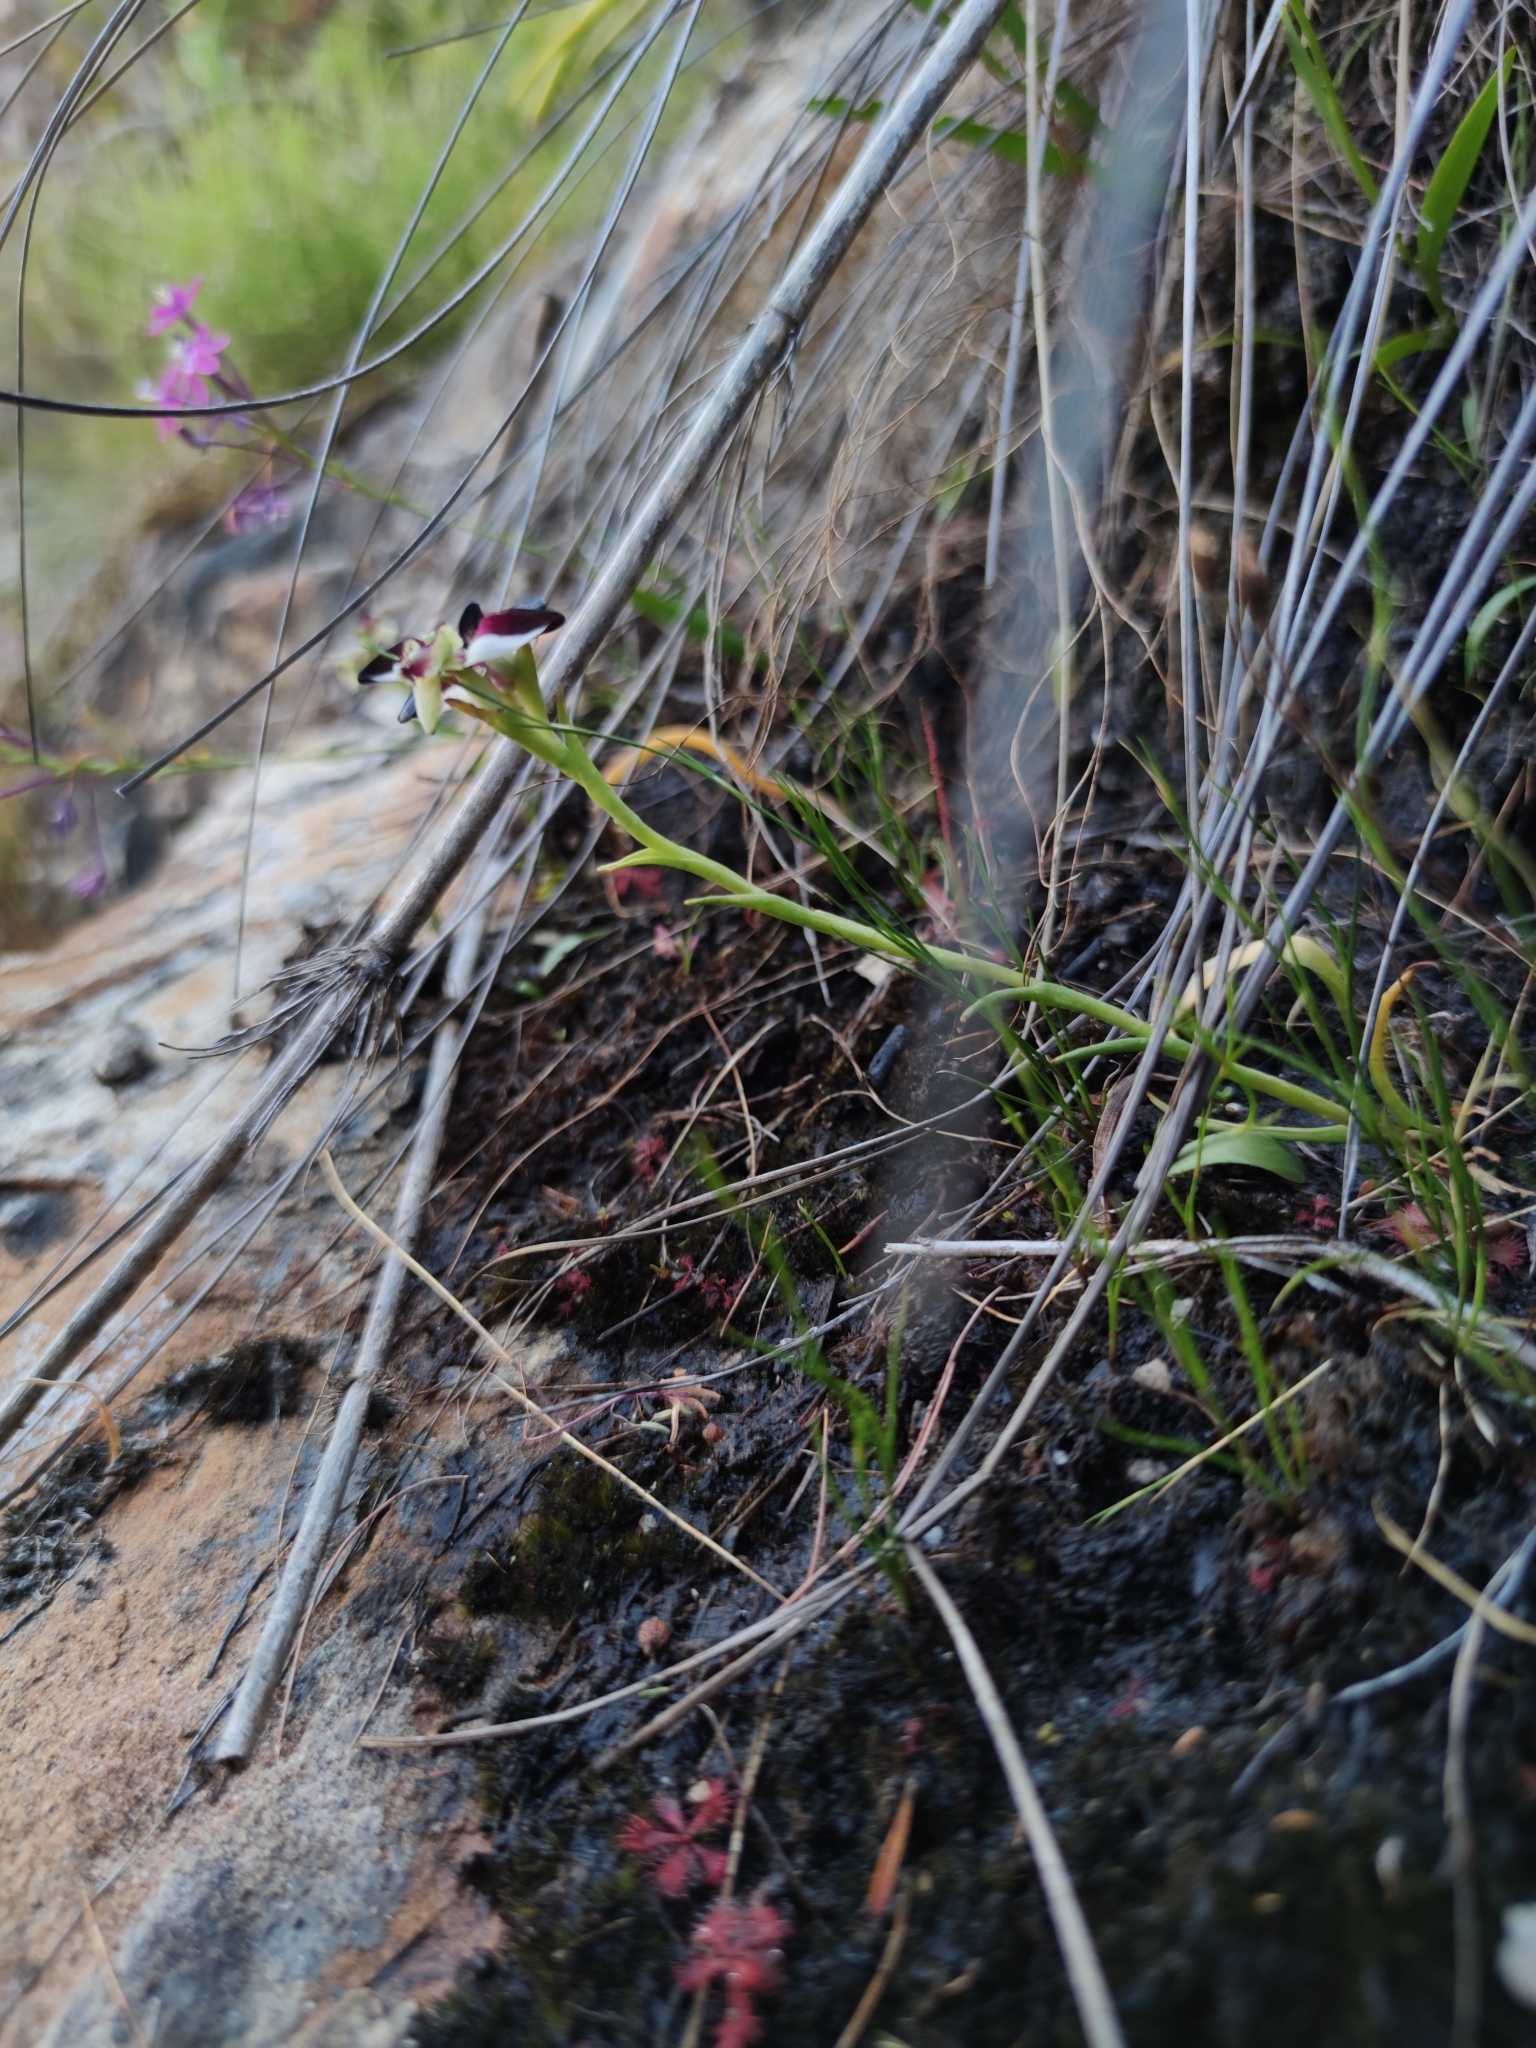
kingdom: Plantae
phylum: Tracheophyta
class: Liliopsida
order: Asparagales
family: Orchidaceae
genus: Disa
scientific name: Disa atricapilla
